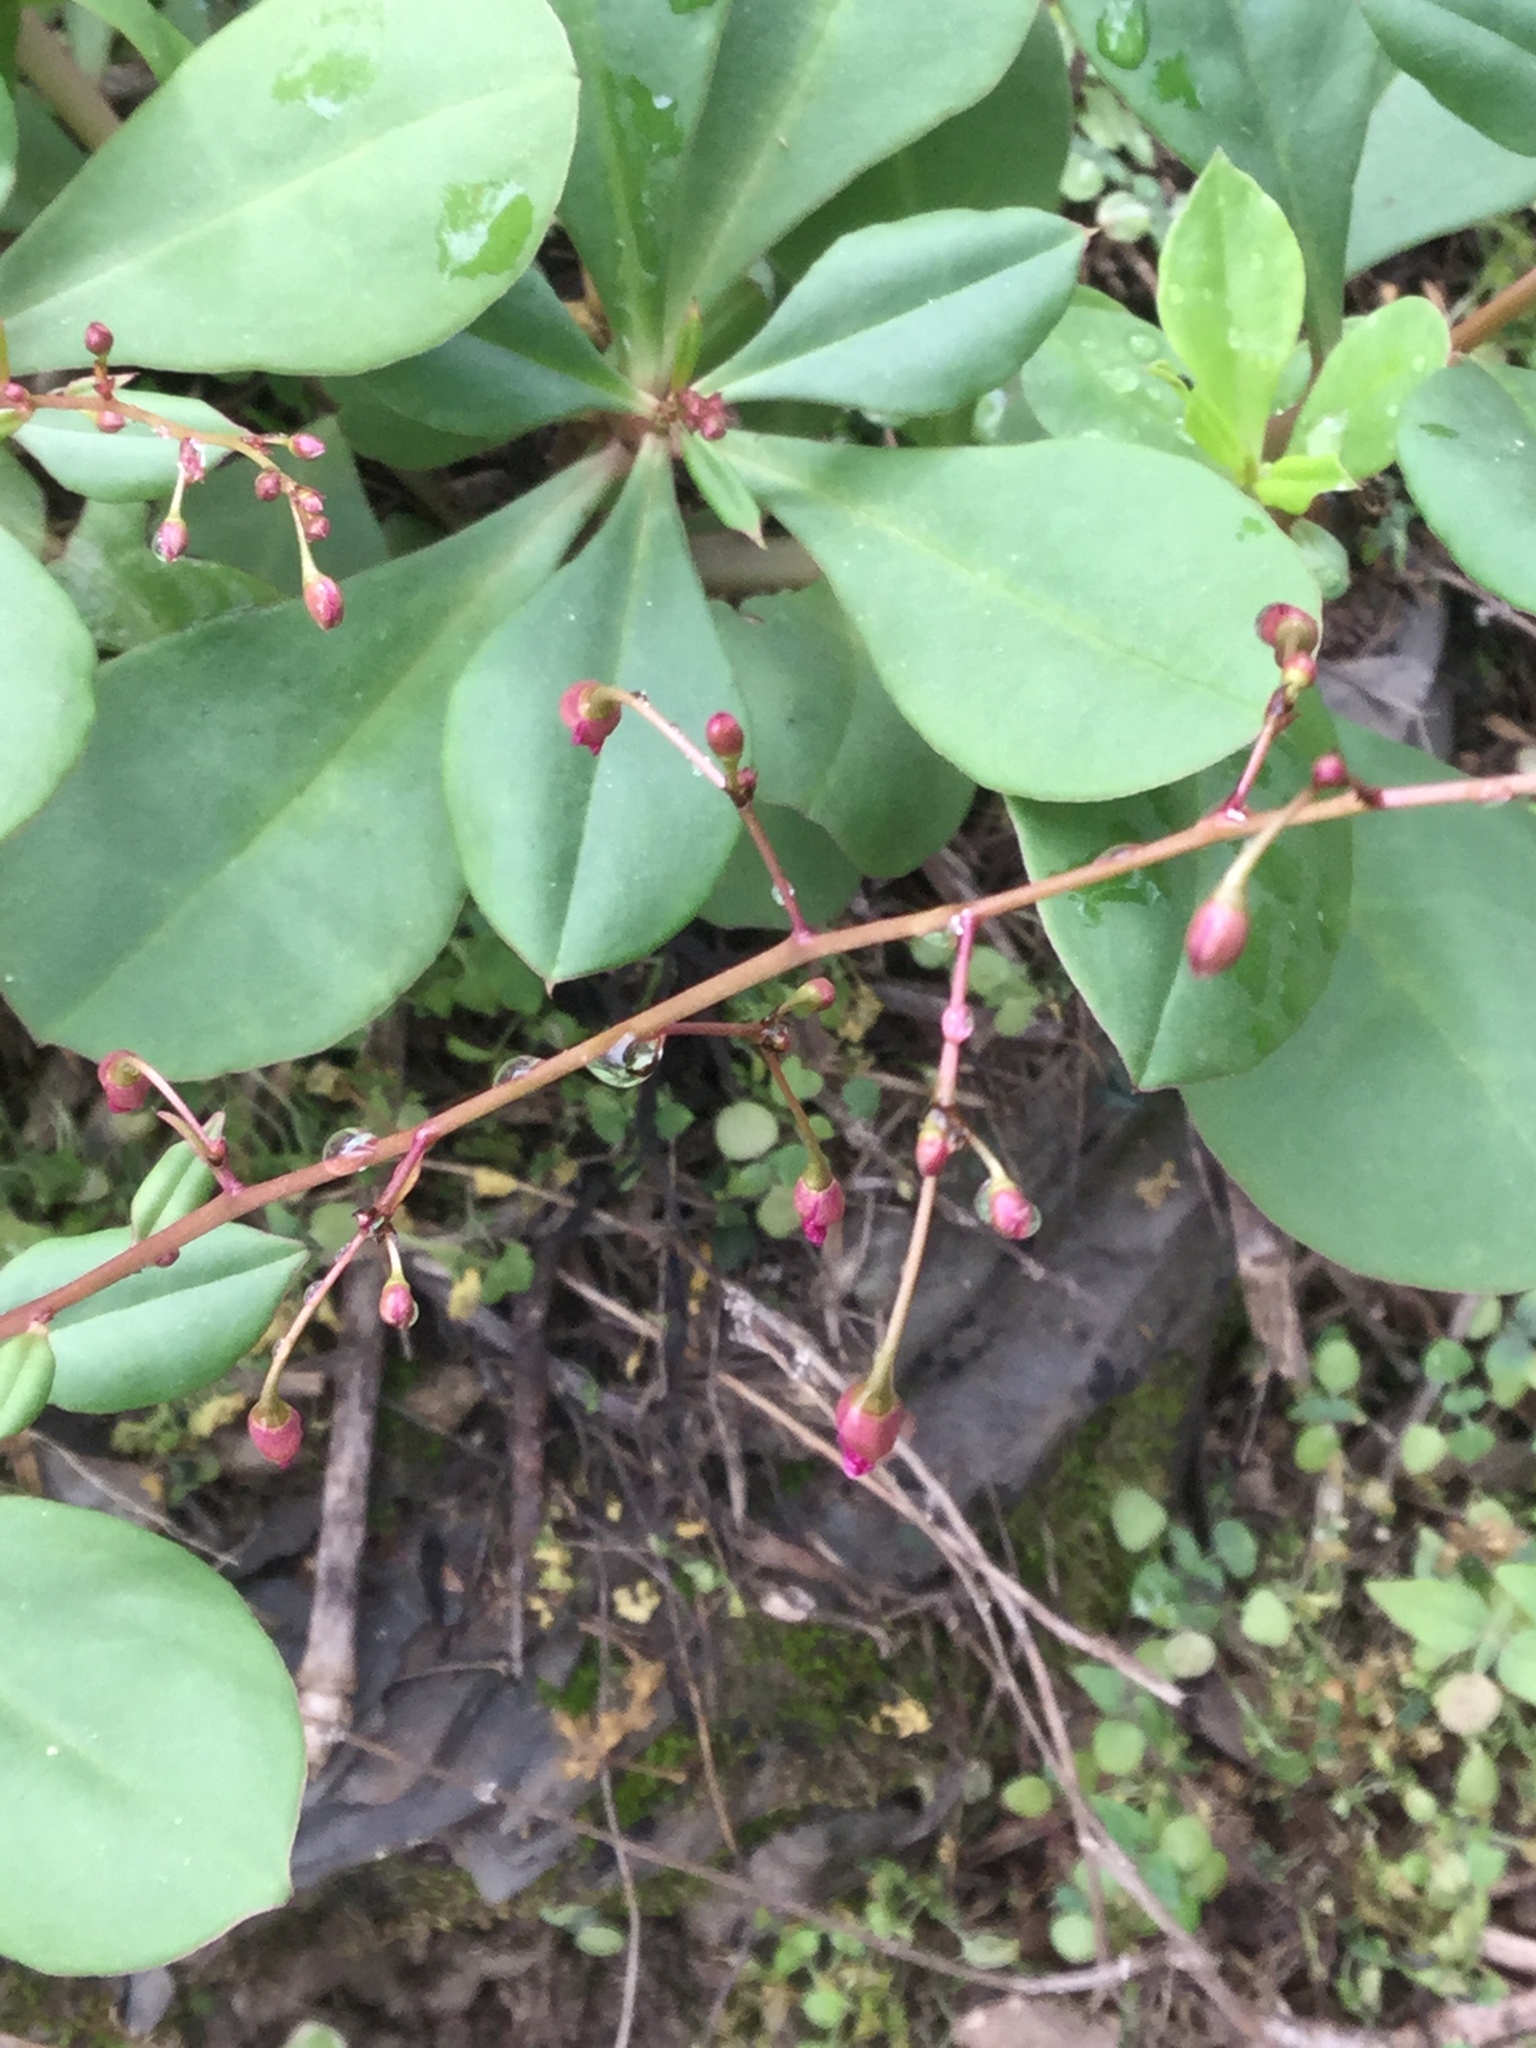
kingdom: Plantae
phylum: Tracheophyta
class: Magnoliopsida
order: Caryophyllales
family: Talinaceae
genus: Talinum
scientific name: Talinum paniculatum
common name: Jewels of opar
